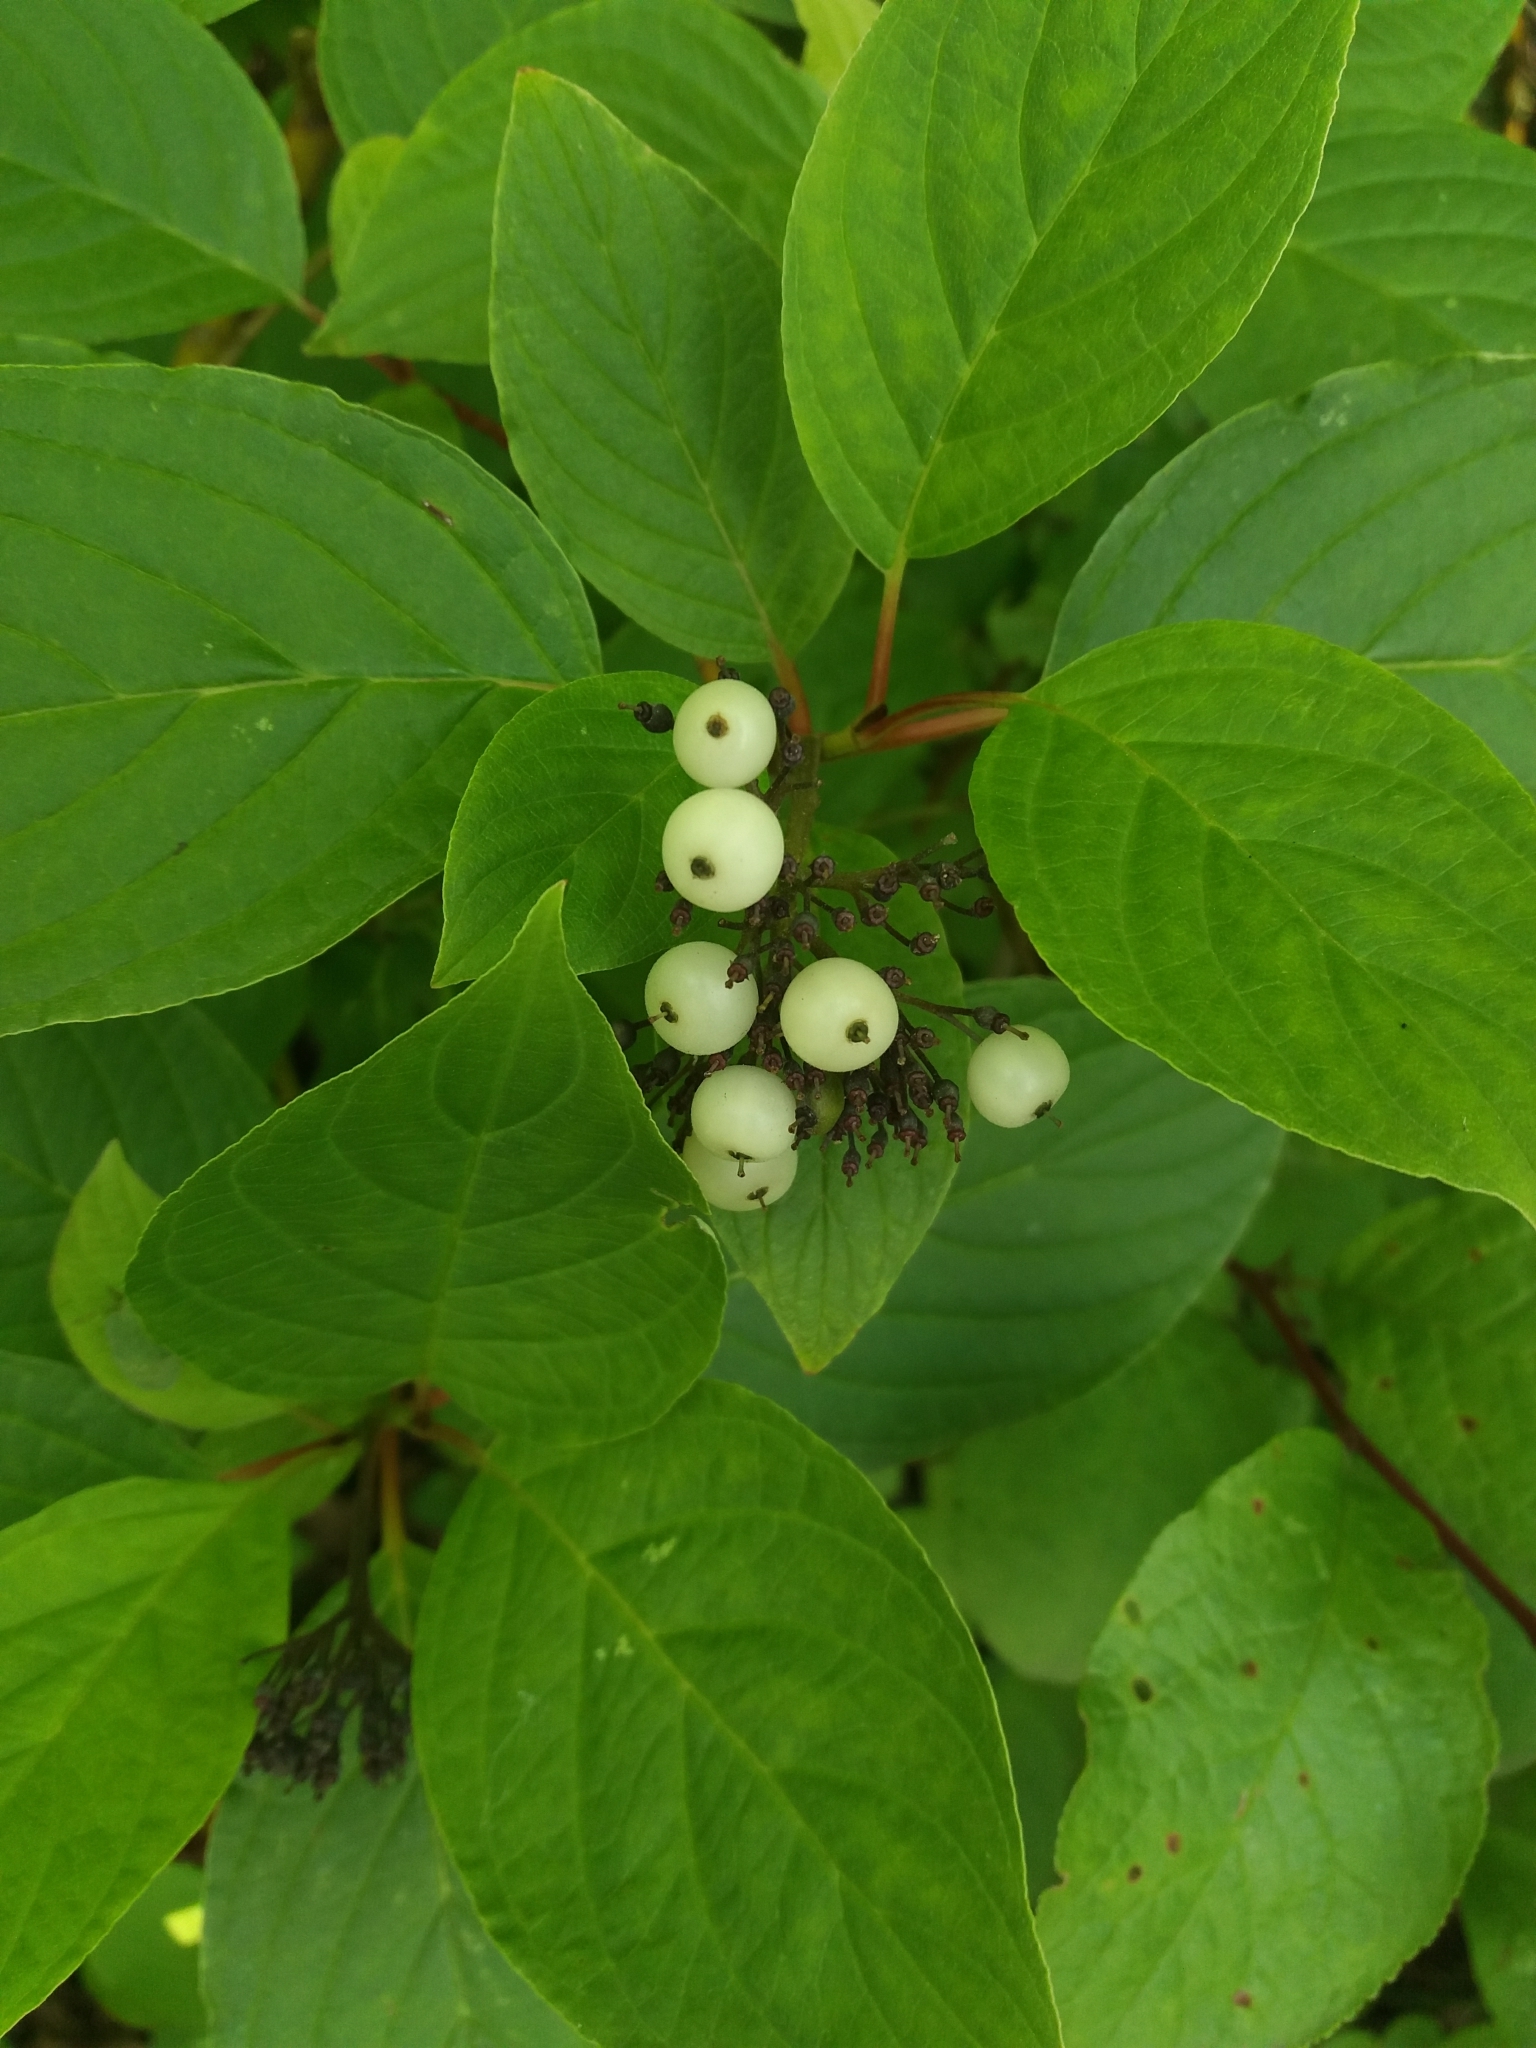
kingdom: Plantae
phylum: Tracheophyta
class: Magnoliopsida
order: Cornales
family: Cornaceae
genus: Cornus
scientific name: Cornus alba
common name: White dogwood
